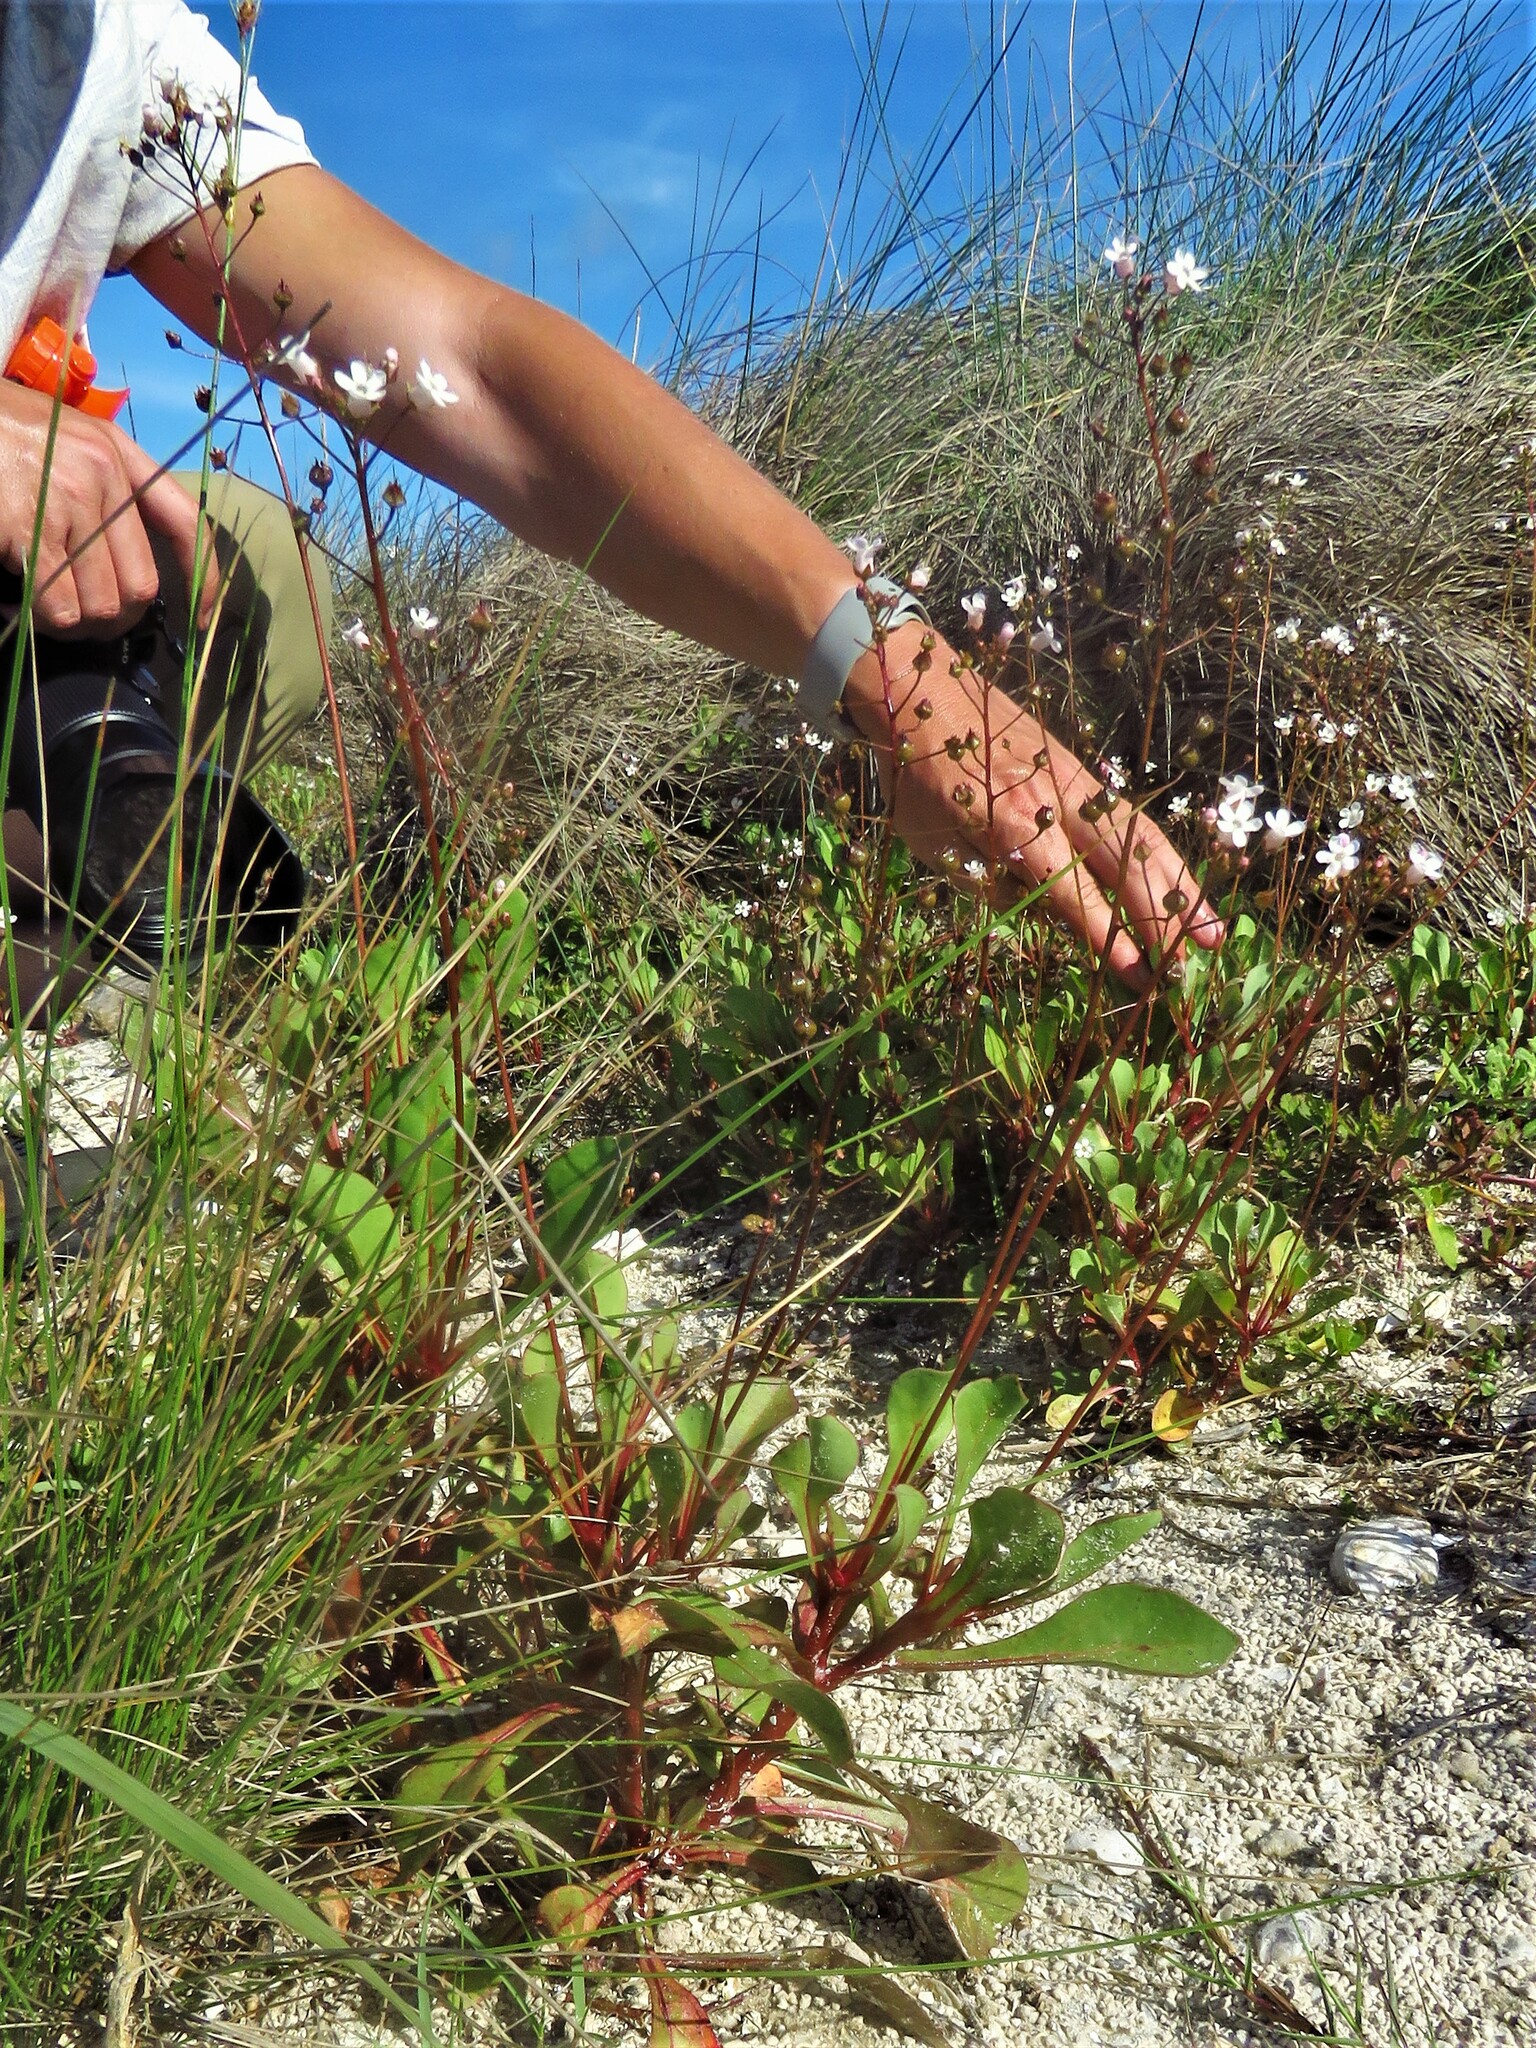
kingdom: Plantae
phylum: Tracheophyta
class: Magnoliopsida
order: Ericales
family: Primulaceae
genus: Samolus
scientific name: Samolus ebracteatus
